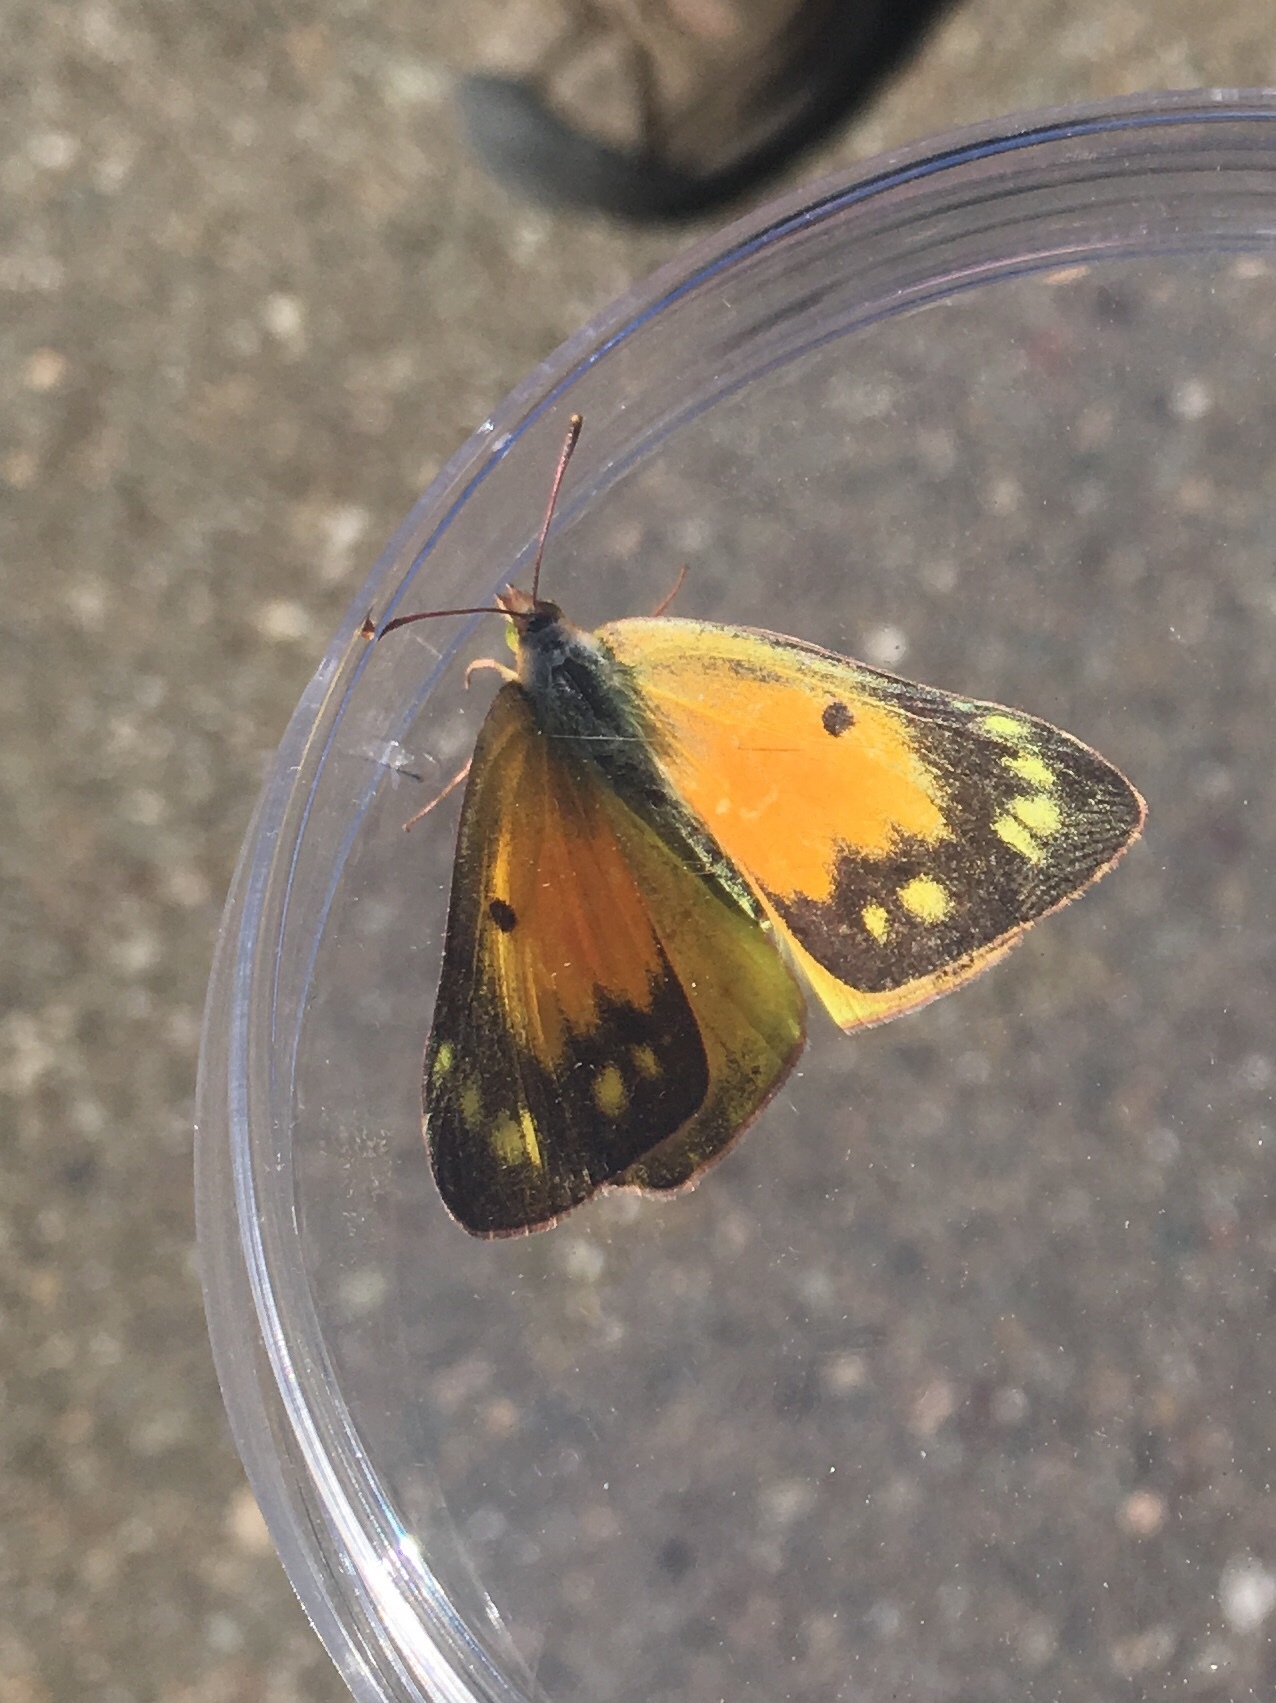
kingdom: Animalia
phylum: Arthropoda
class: Insecta
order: Lepidoptera
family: Pieridae
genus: Colias
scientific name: Colias eurytheme
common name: Alfalfa butterfly
